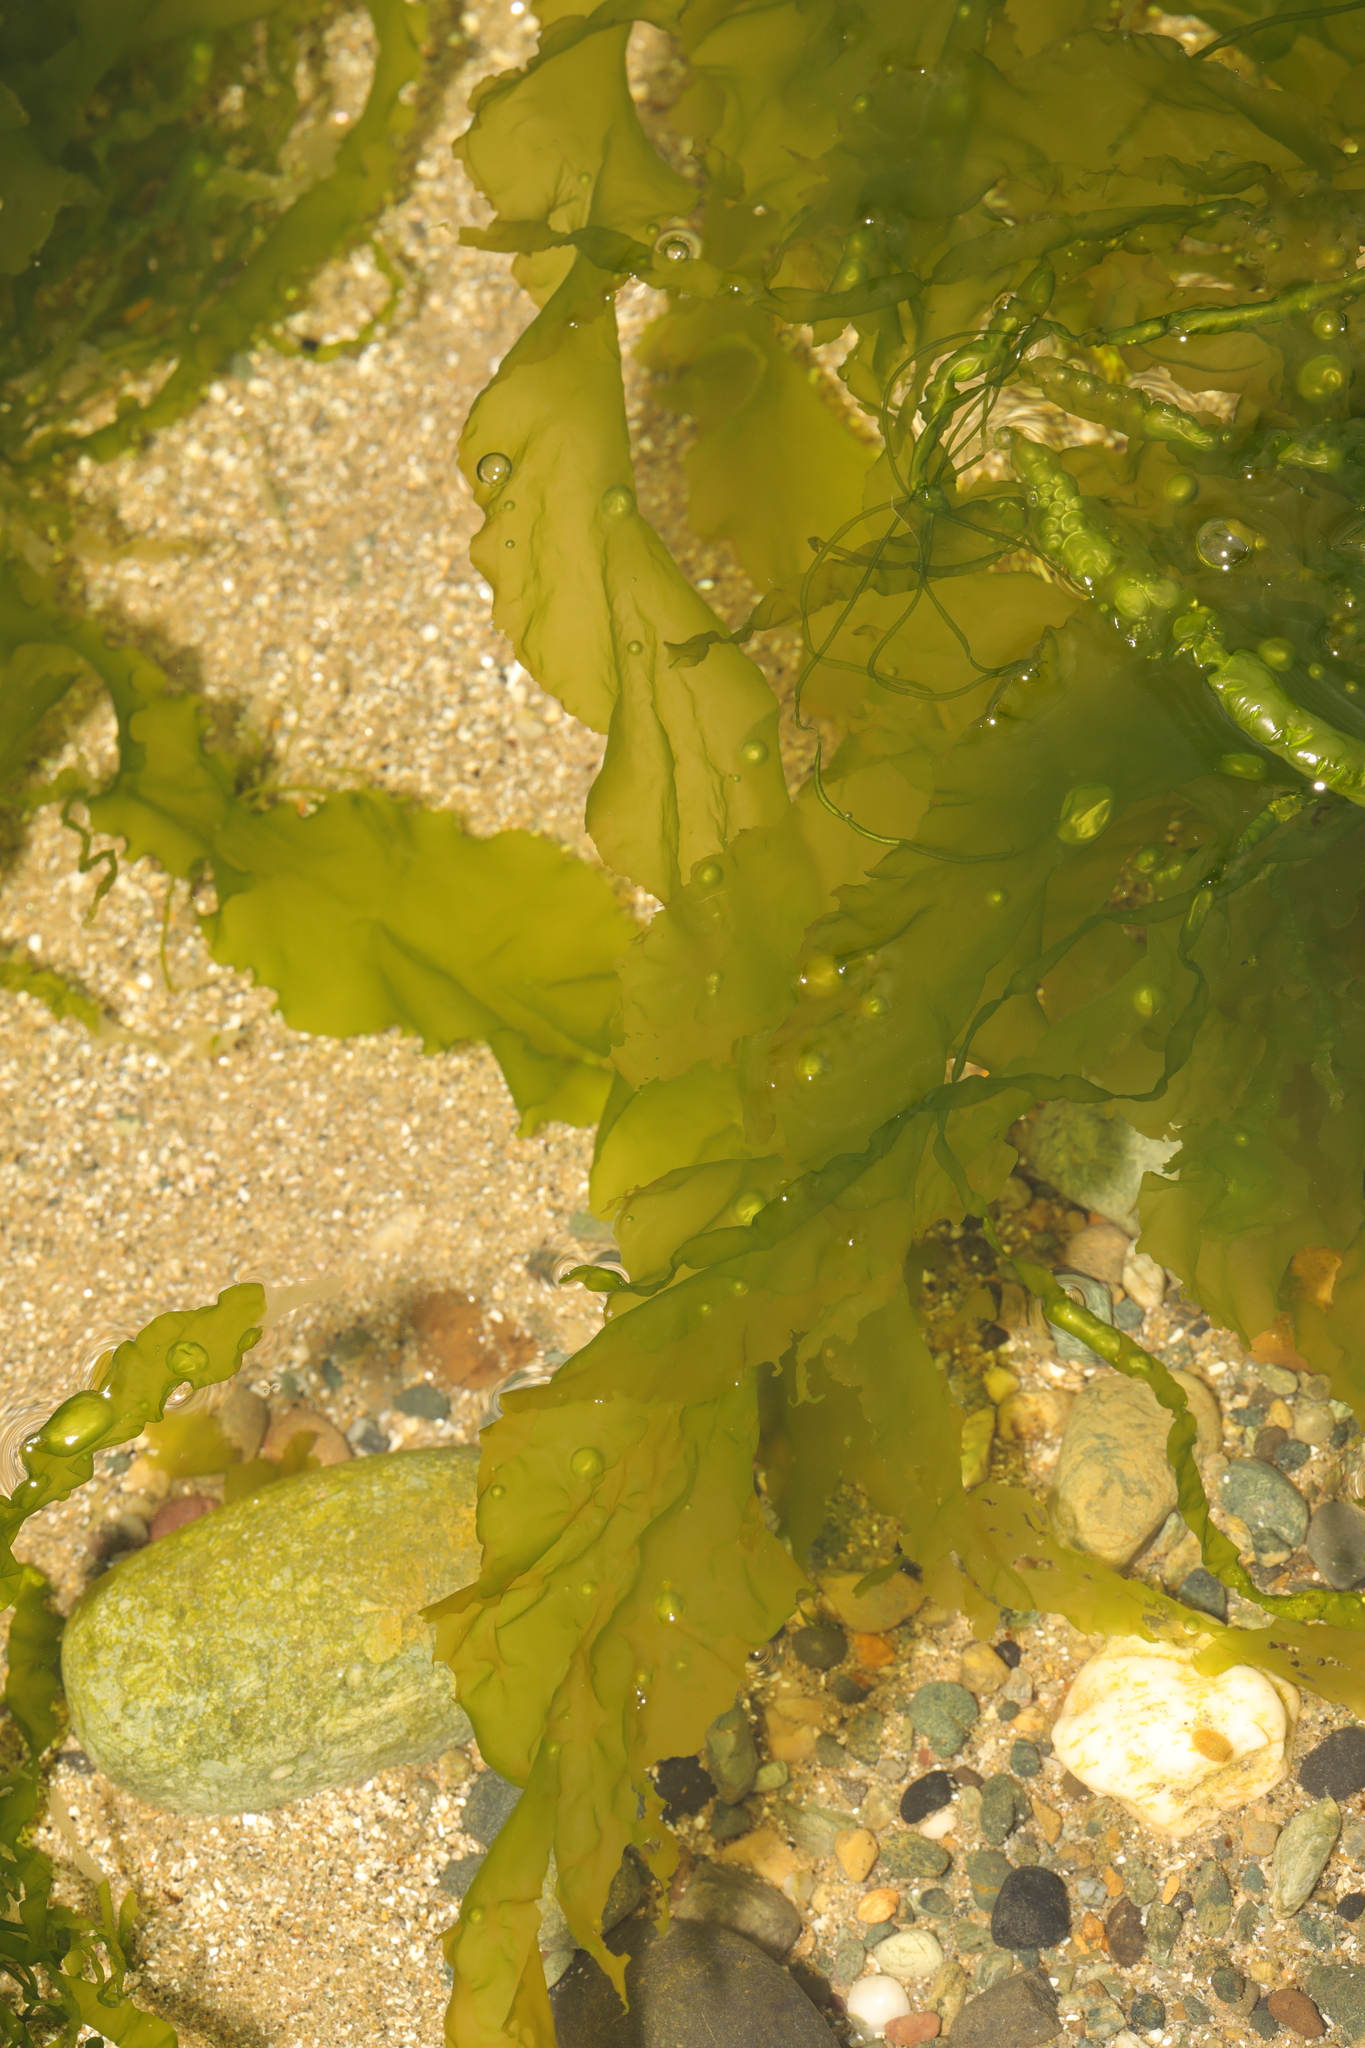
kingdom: Plantae
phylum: Chlorophyta
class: Ulvophyceae
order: Ulvales
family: Ulvaceae
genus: Ulva
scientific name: Ulva lactuca
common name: Sea lettuce
